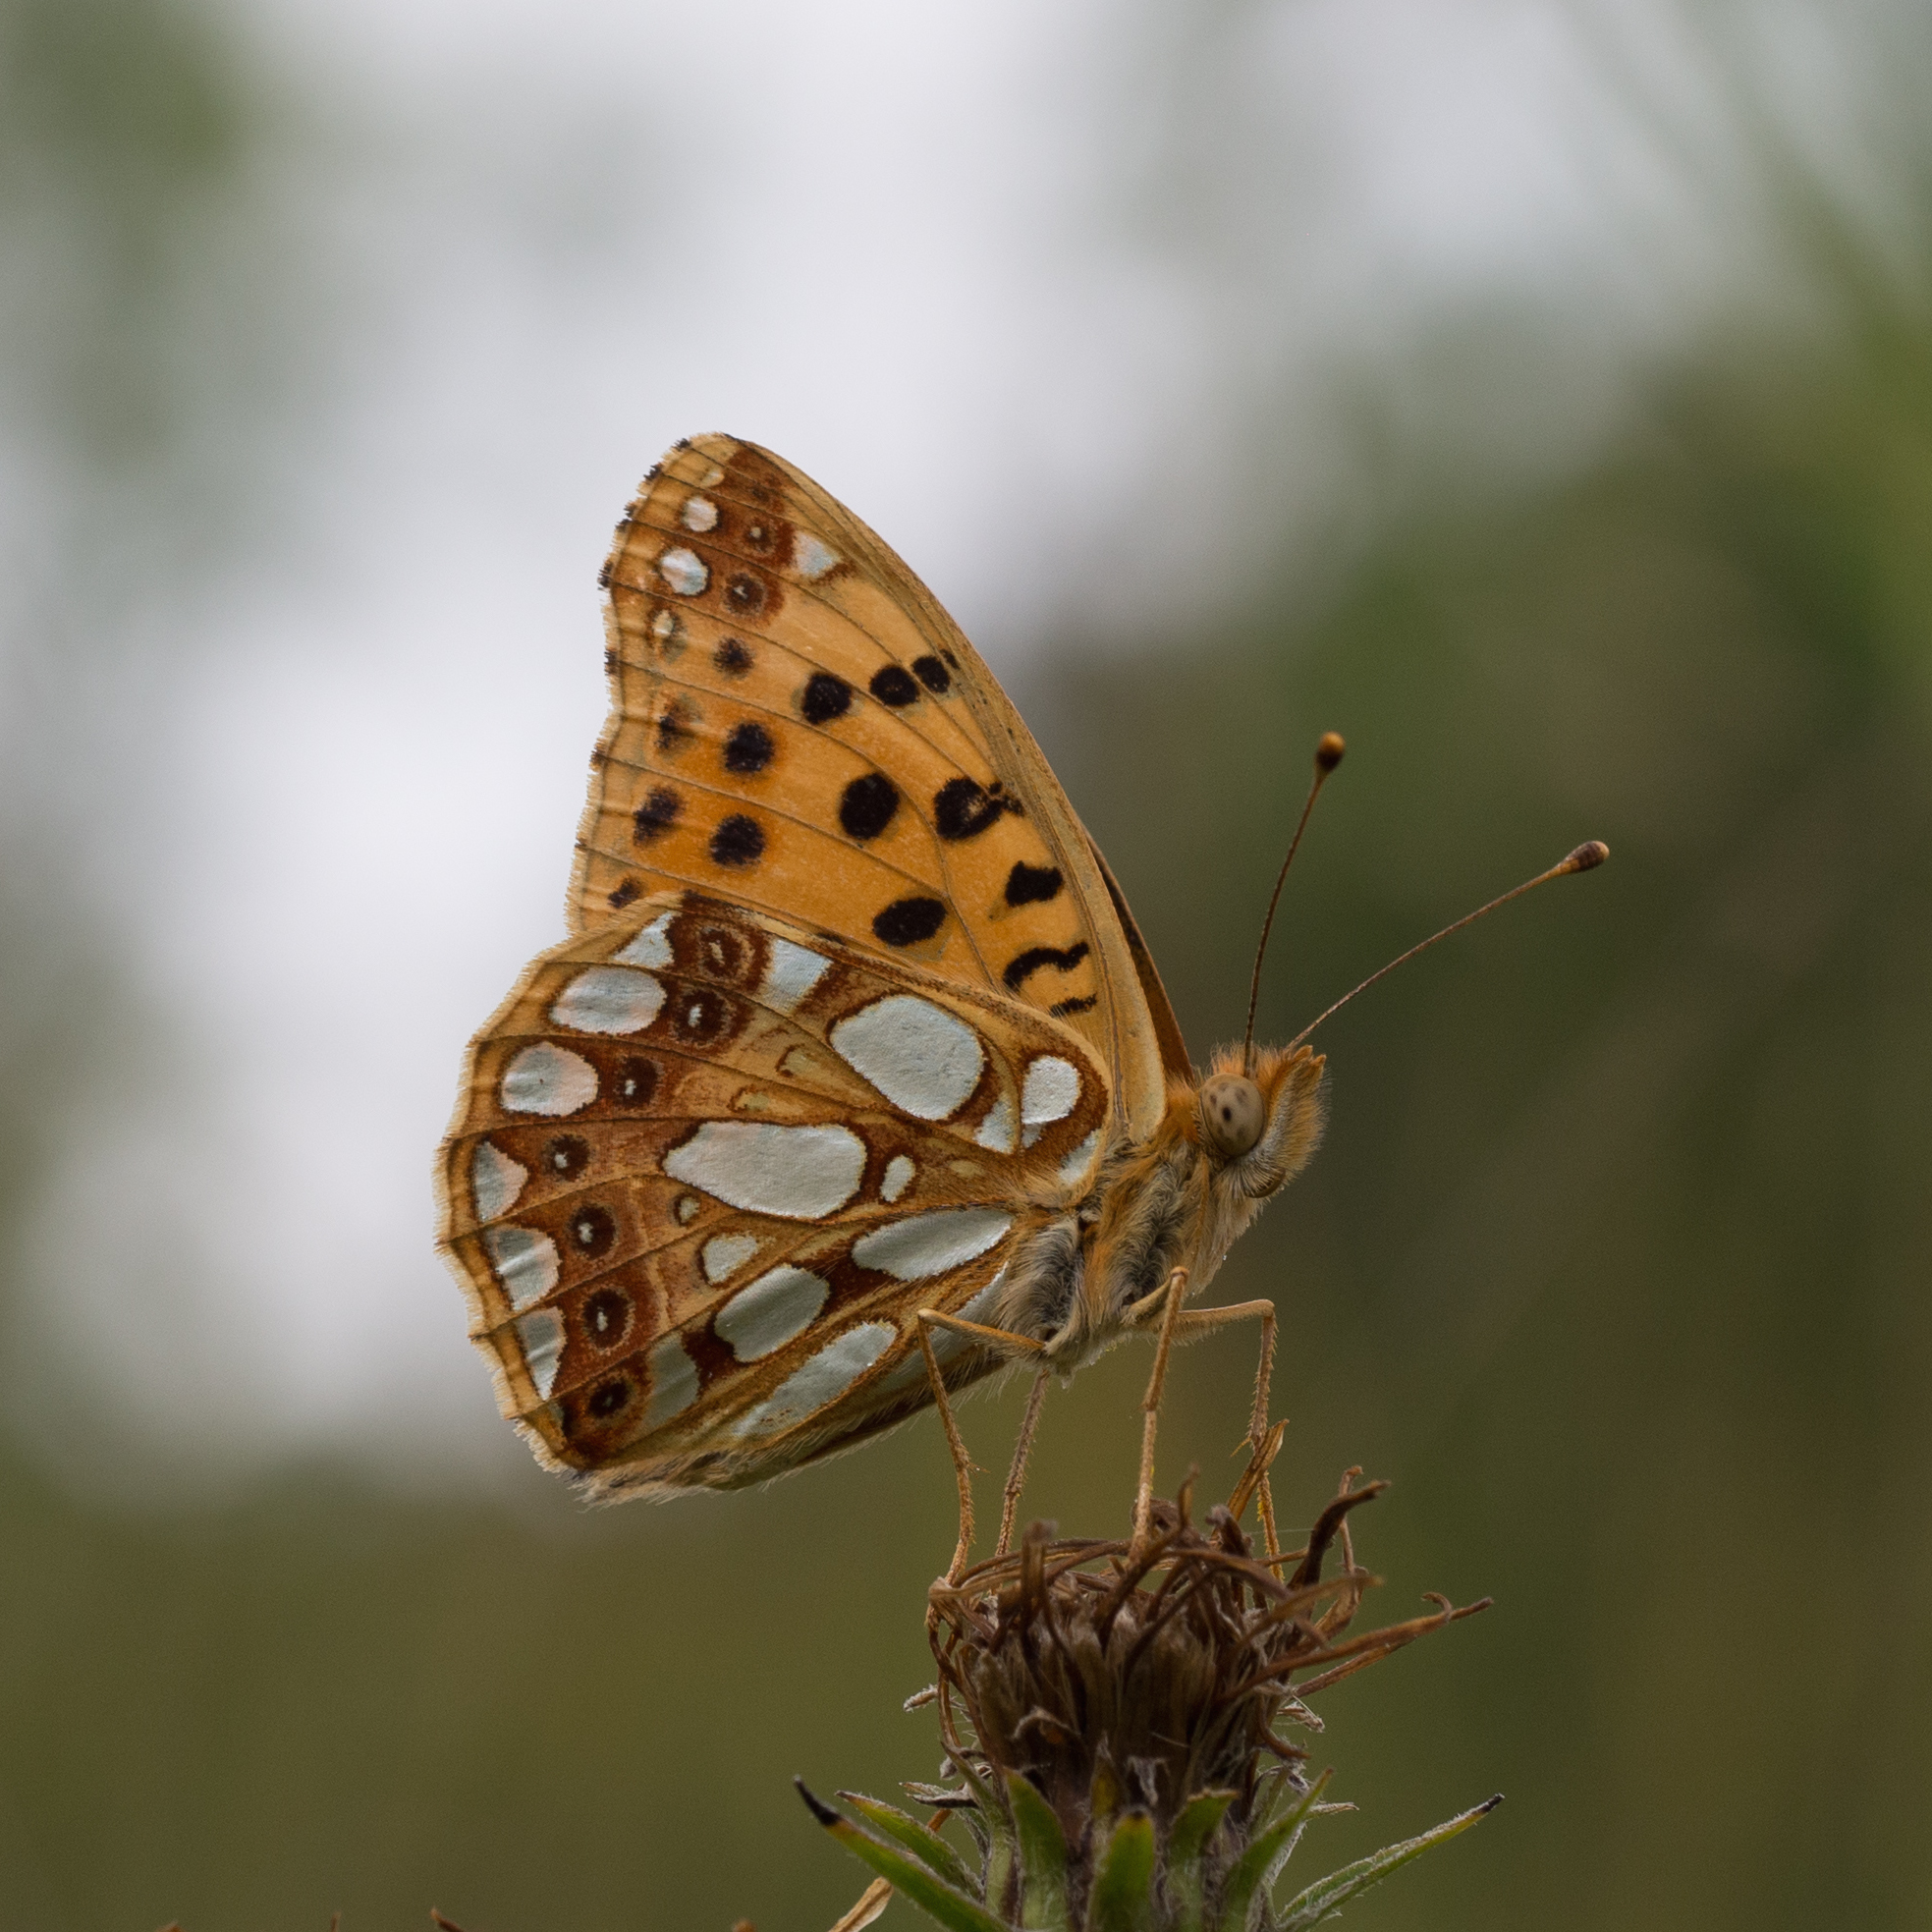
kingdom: Animalia
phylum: Arthropoda
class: Insecta
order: Lepidoptera
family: Nymphalidae
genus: Issoria
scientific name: Issoria lathonia
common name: Queen of spain fritillary
